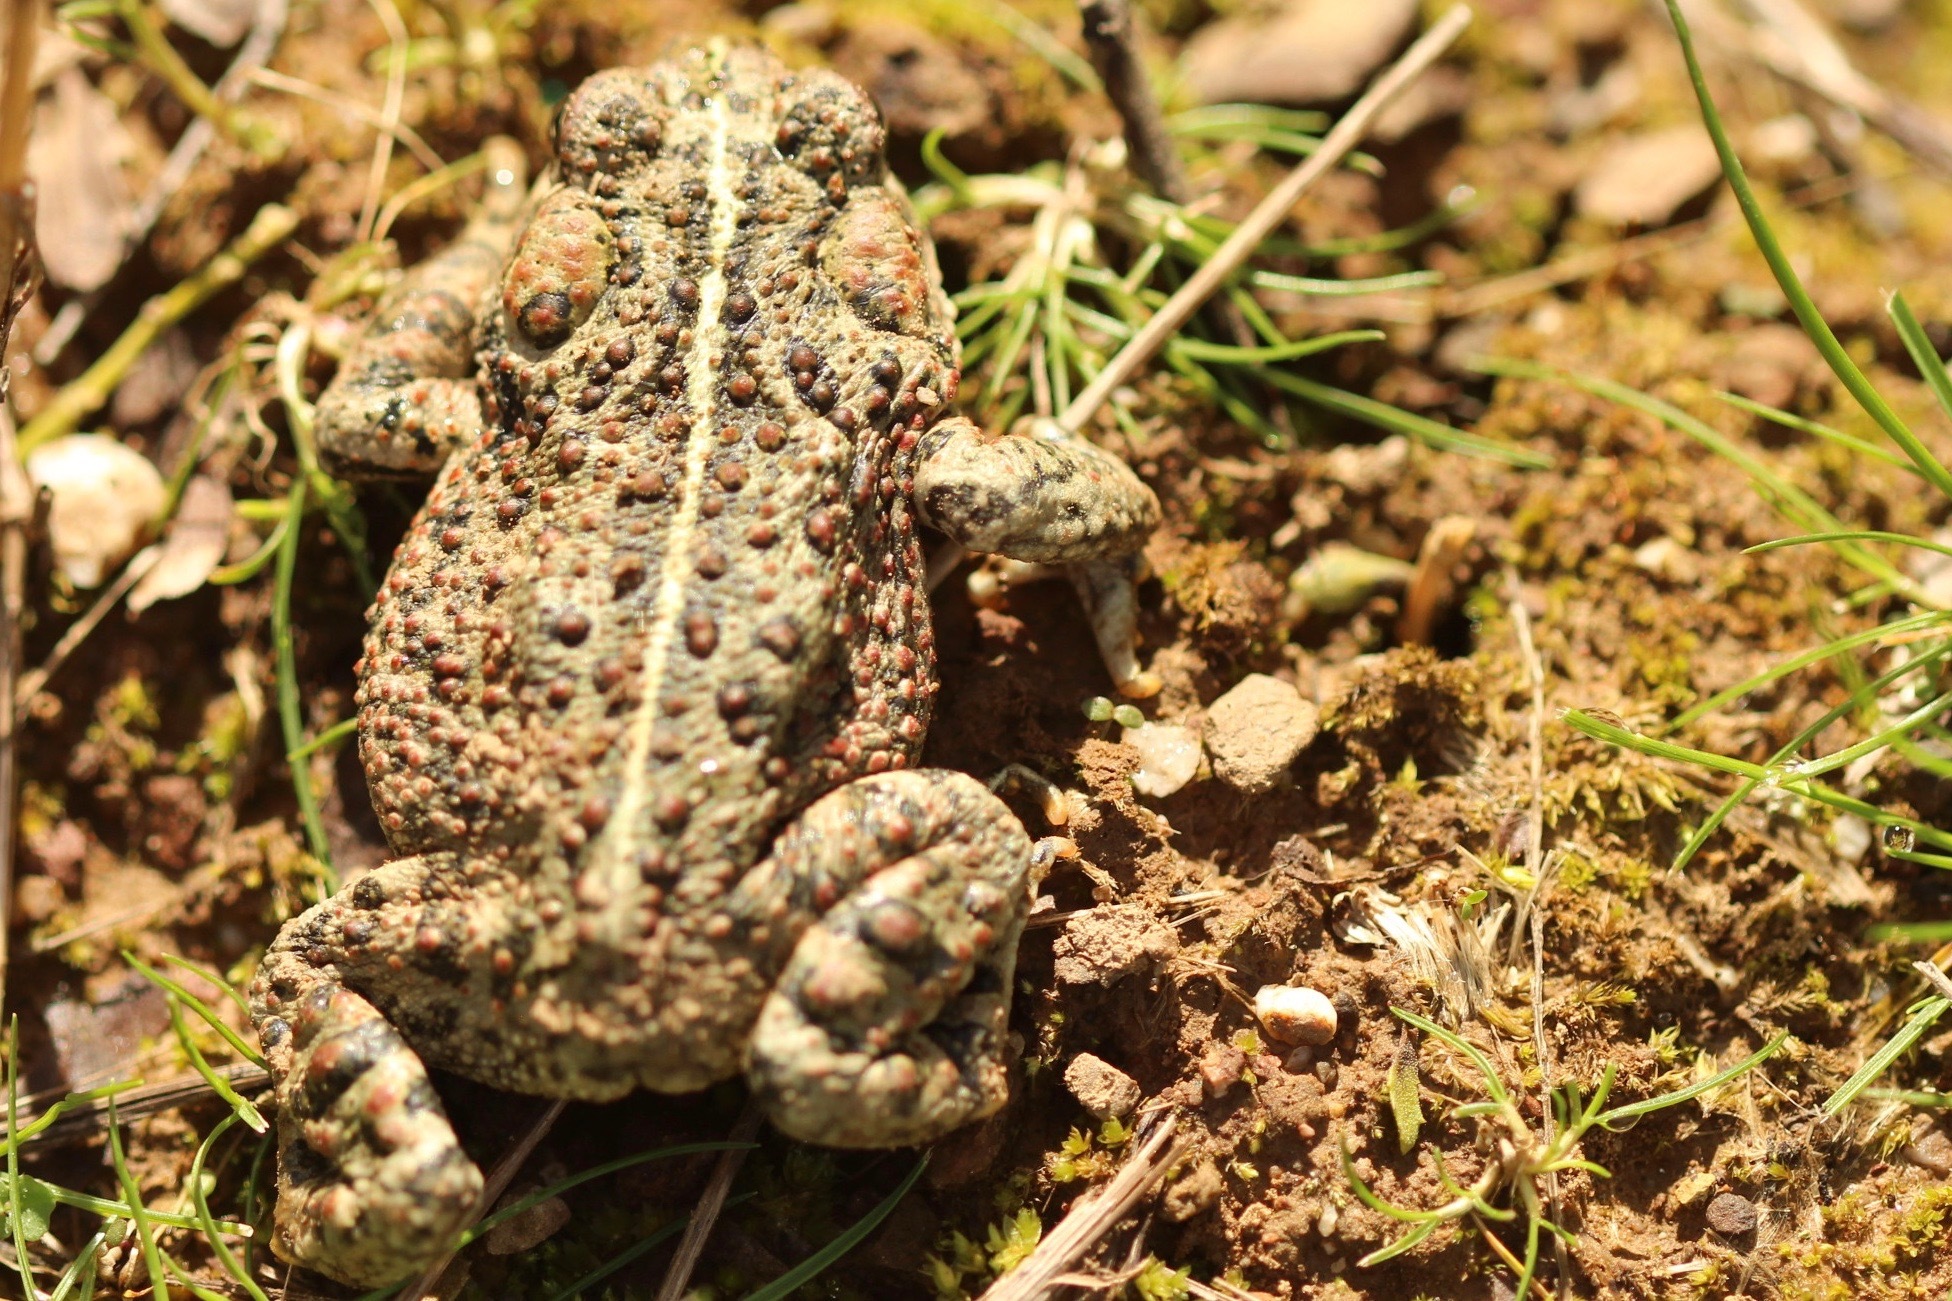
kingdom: Animalia
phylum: Chordata
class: Amphibia
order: Anura
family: Bufonidae
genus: Anaxyrus
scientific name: Anaxyrus boreas
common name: Western toad
